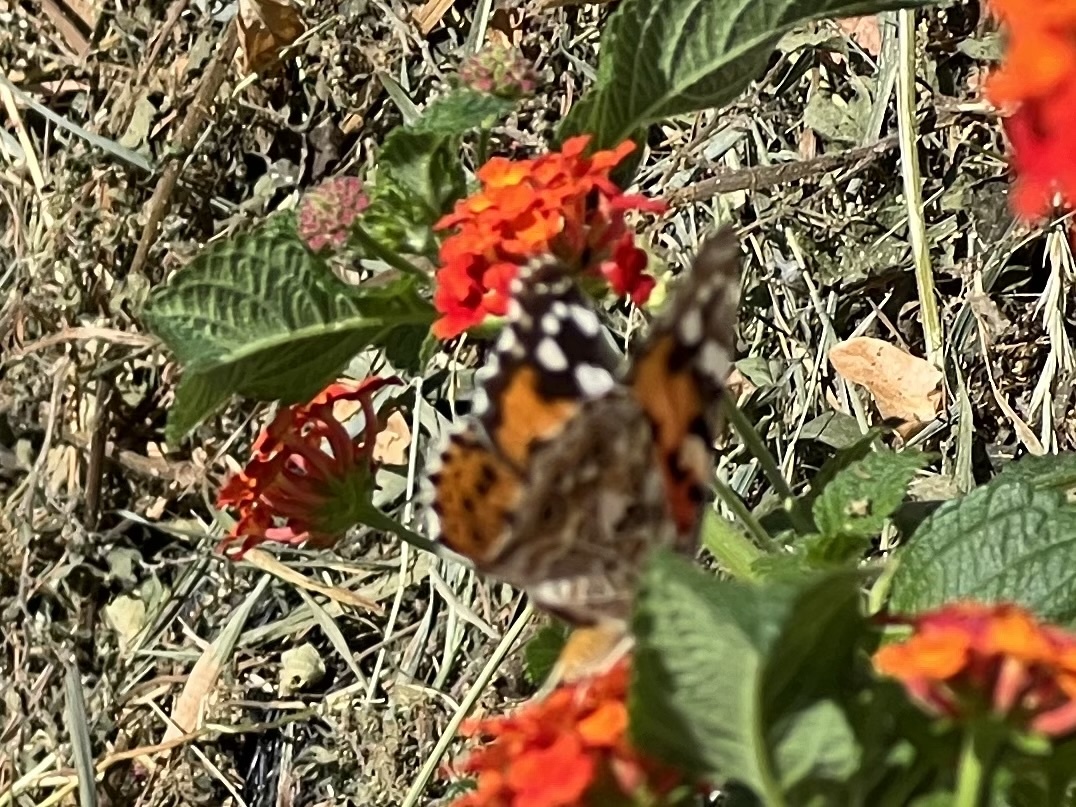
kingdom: Animalia
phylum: Arthropoda
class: Insecta
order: Lepidoptera
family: Nymphalidae
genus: Vanessa
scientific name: Vanessa cardui
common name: Painted lady
